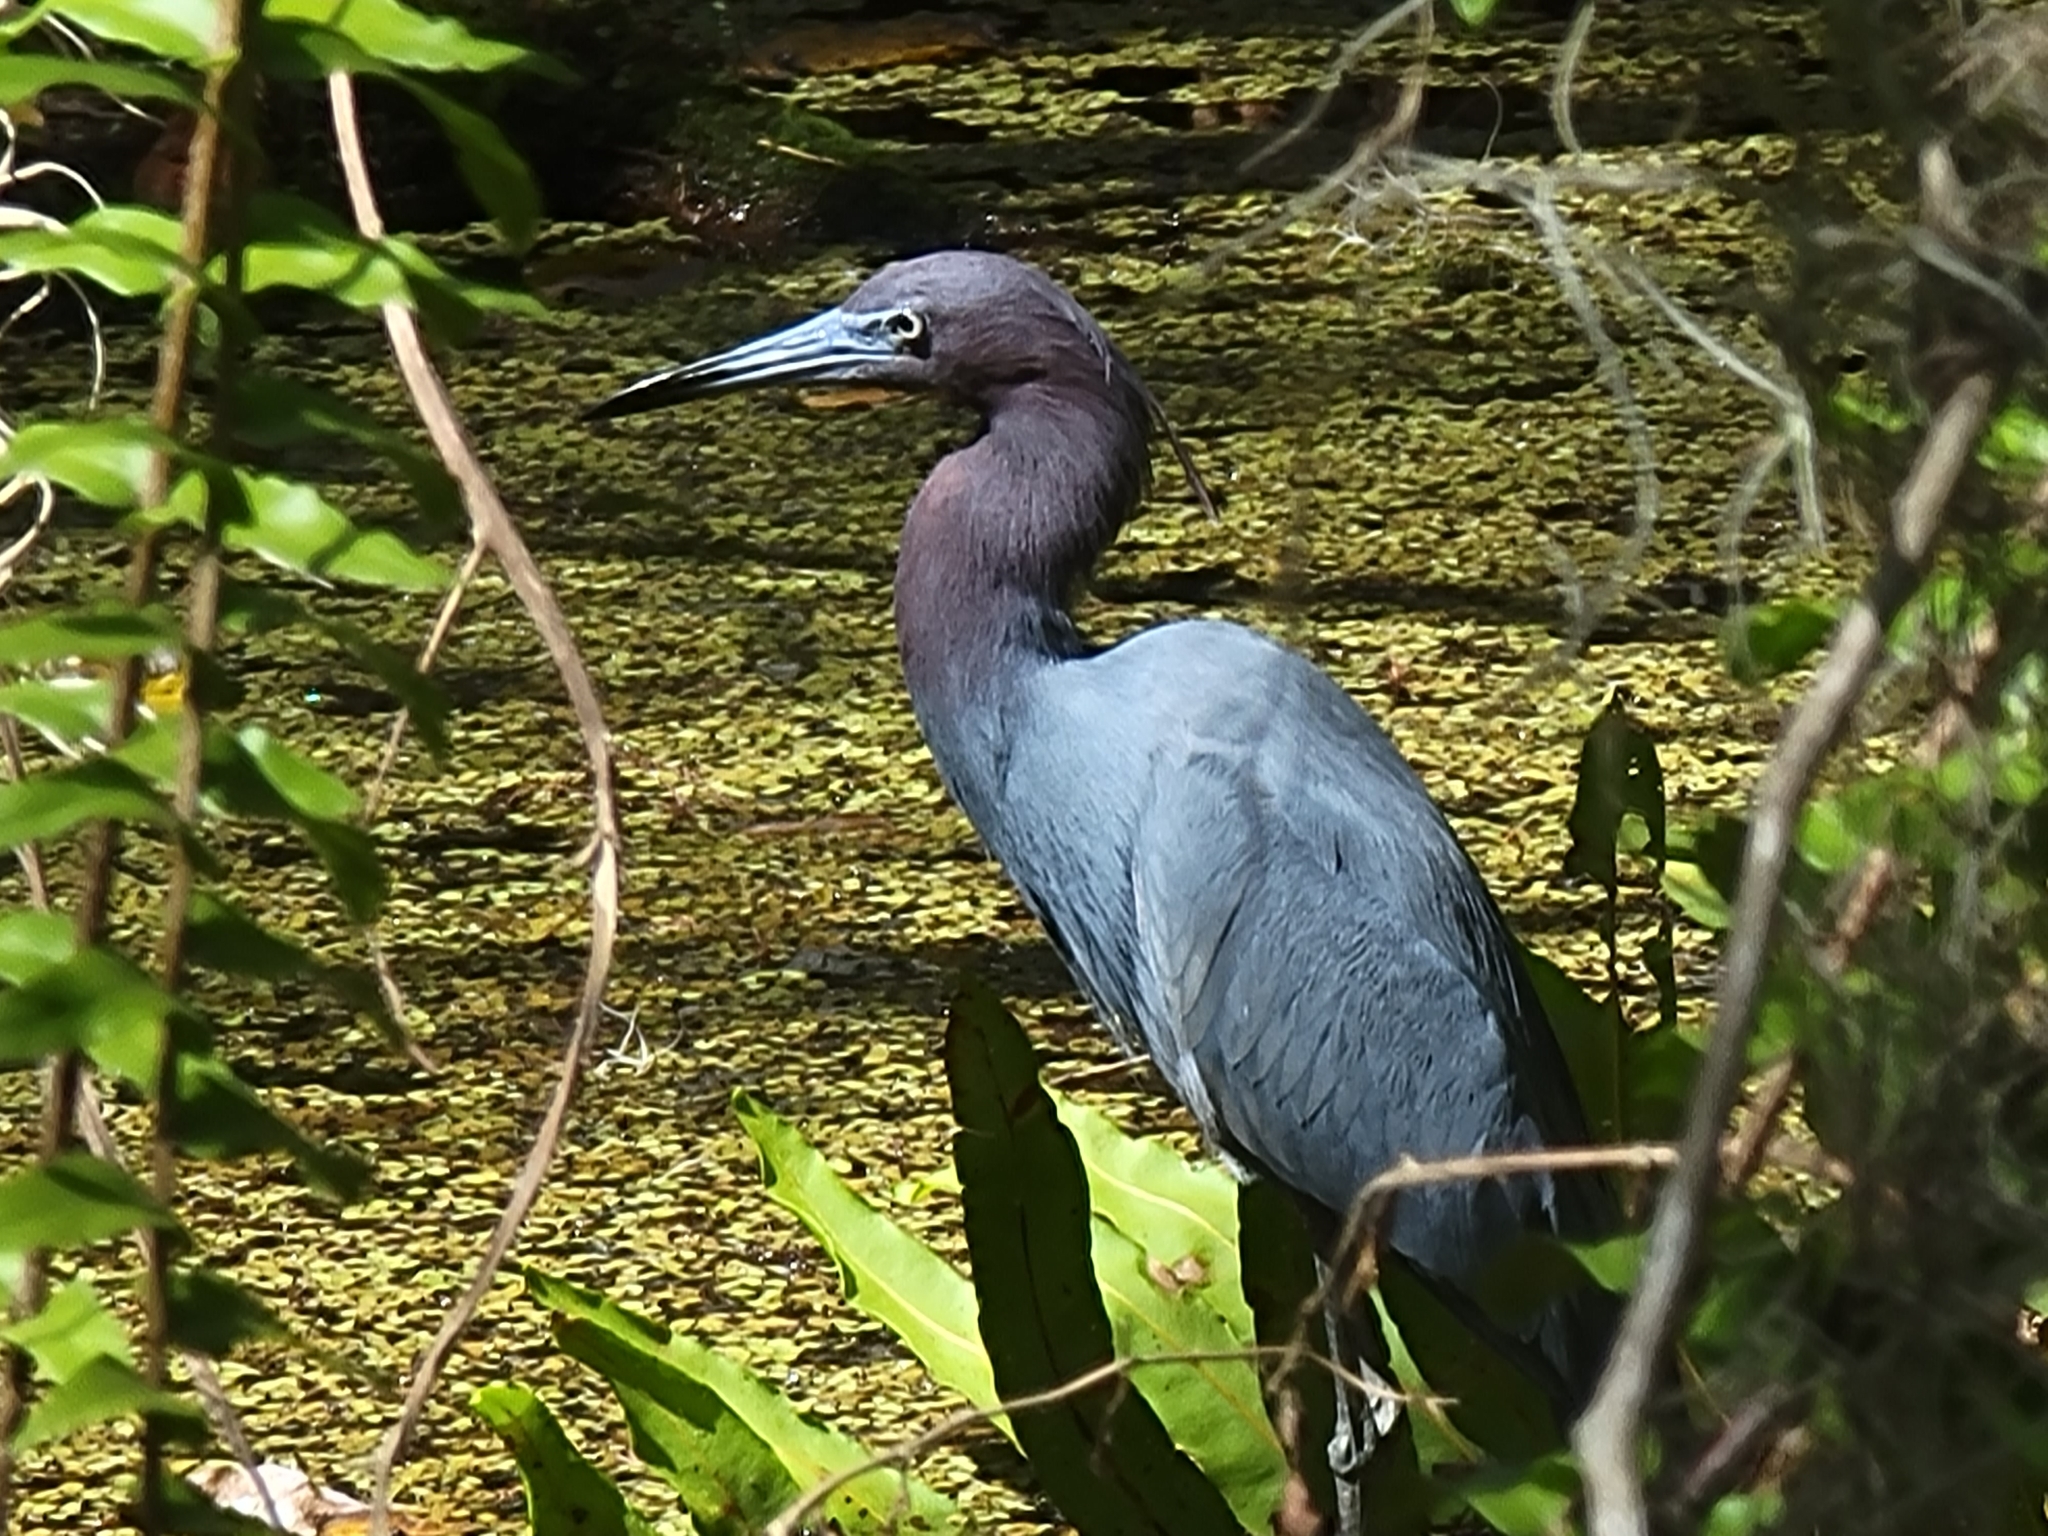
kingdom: Animalia
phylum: Chordata
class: Aves
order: Pelecaniformes
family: Ardeidae
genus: Egretta
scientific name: Egretta caerulea
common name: Little blue heron
